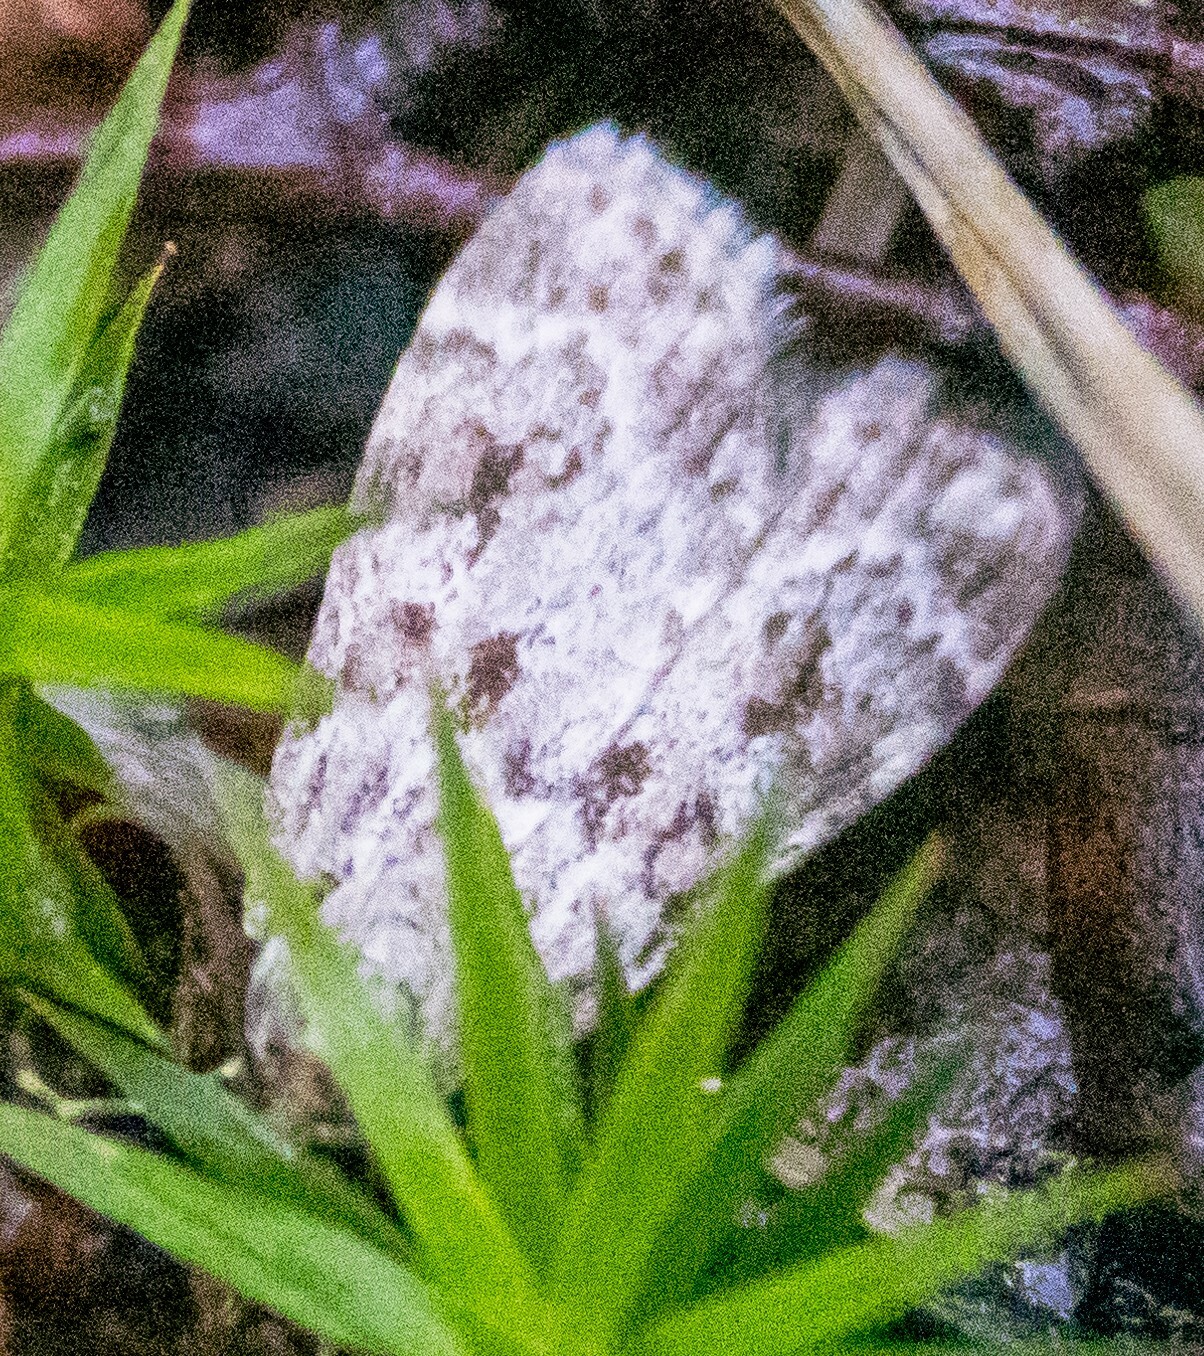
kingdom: Animalia
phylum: Arthropoda
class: Insecta
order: Lepidoptera
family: Crambidae
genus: Scoparia
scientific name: Scoparia ambigualis
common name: Common grey
